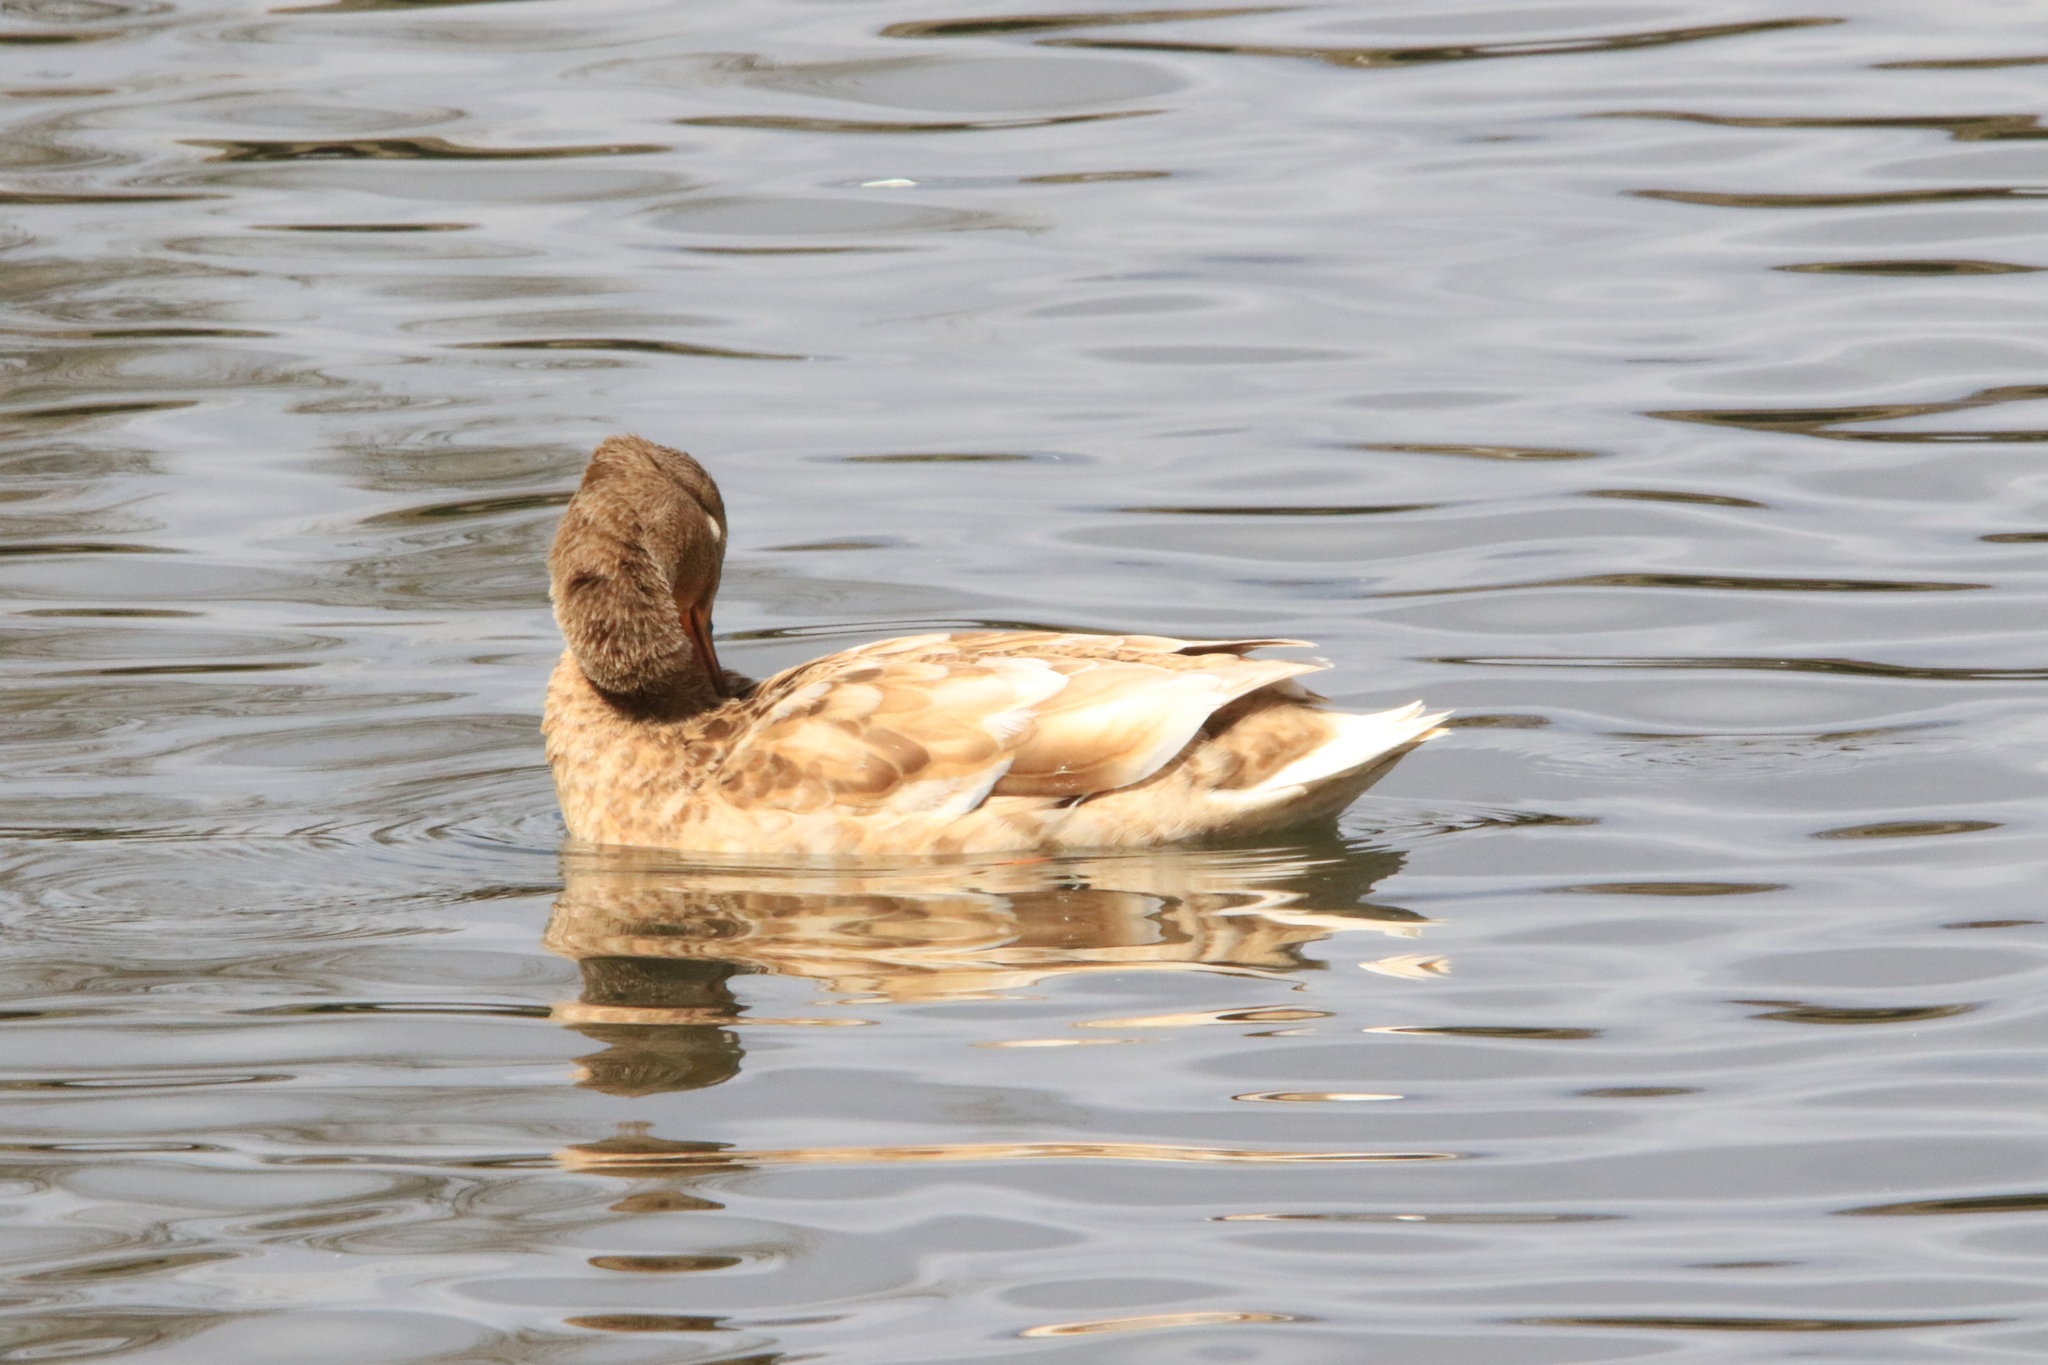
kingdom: Animalia
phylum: Chordata
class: Aves
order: Anseriformes
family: Anatidae
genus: Anas
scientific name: Anas platyrhynchos
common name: Mallard
